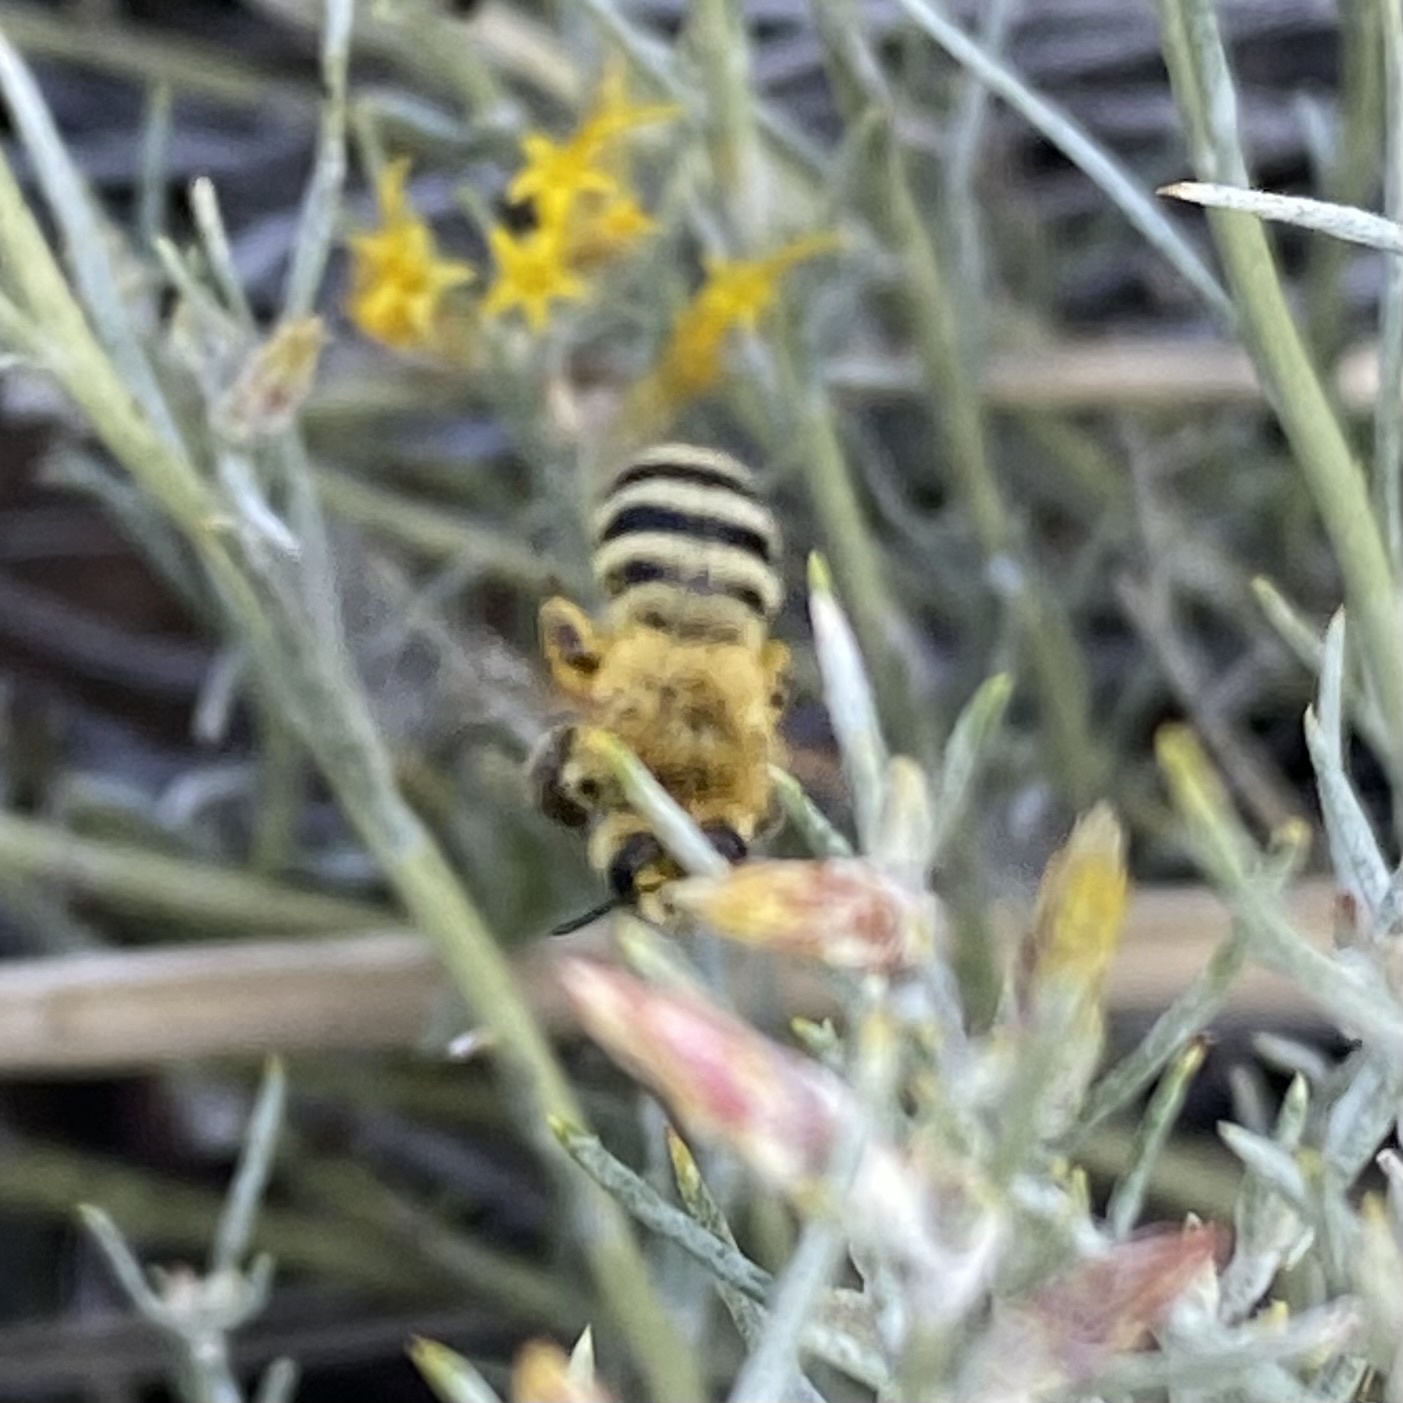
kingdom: Animalia
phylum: Arthropoda
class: Insecta
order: Hymenoptera
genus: Cnemidandrena
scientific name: Cnemidandrena
